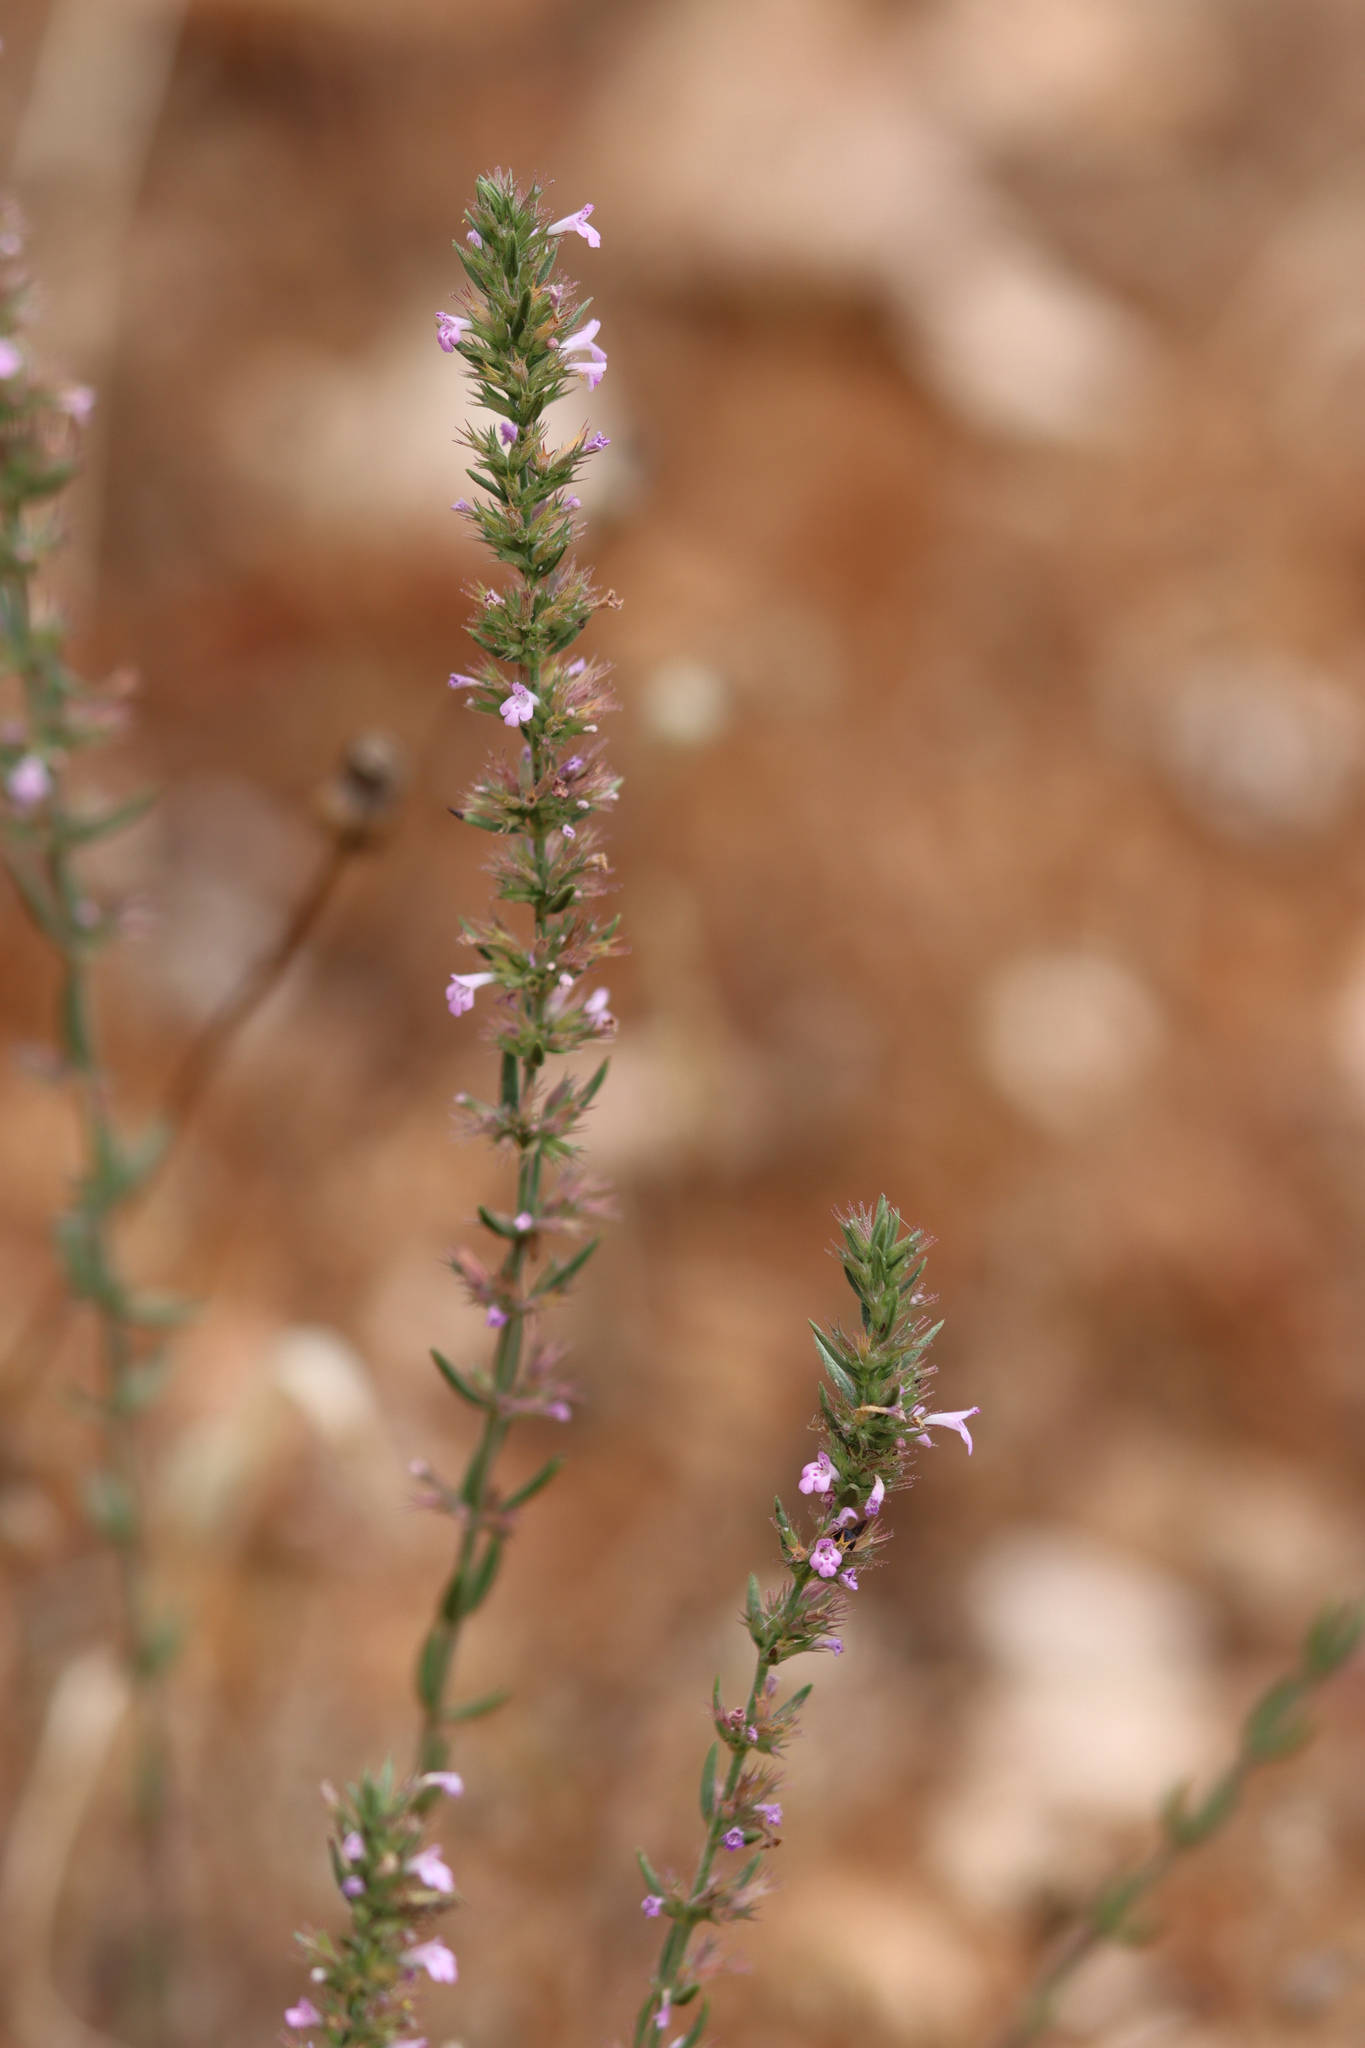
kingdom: Plantae
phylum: Tracheophyta
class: Magnoliopsida
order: Lamiales
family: Lamiaceae
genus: Micromeria
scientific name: Micromeria graeca
